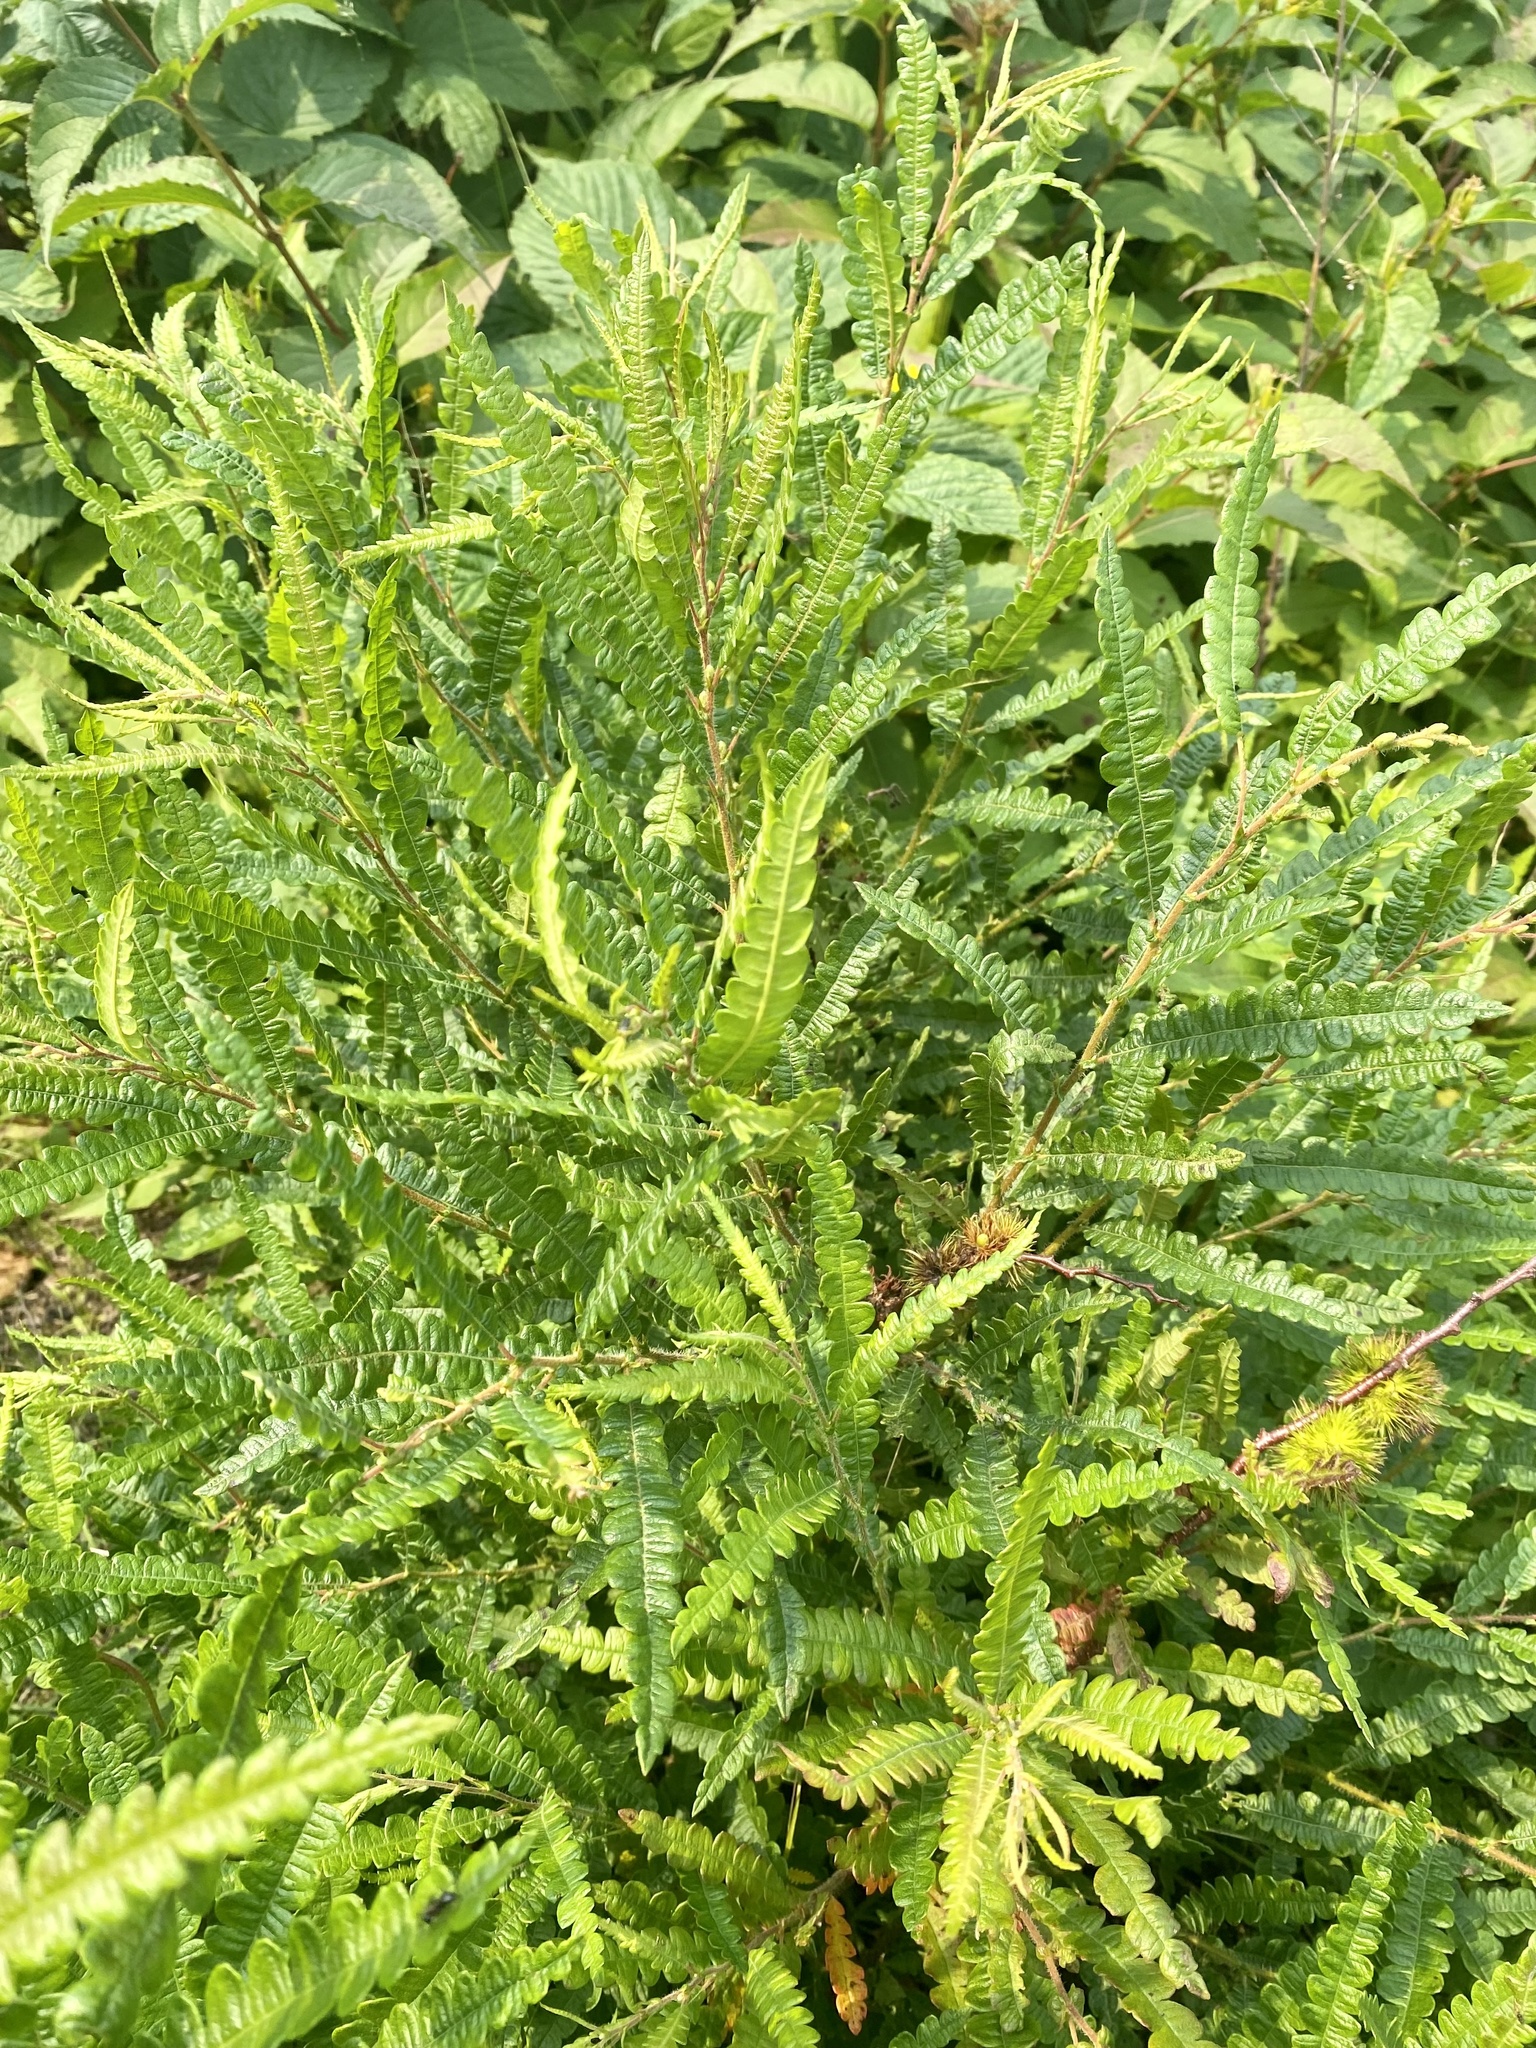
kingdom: Plantae
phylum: Tracheophyta
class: Magnoliopsida
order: Fagales
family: Myricaceae
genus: Comptonia
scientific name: Comptonia peregrina
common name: Sweet-fern
